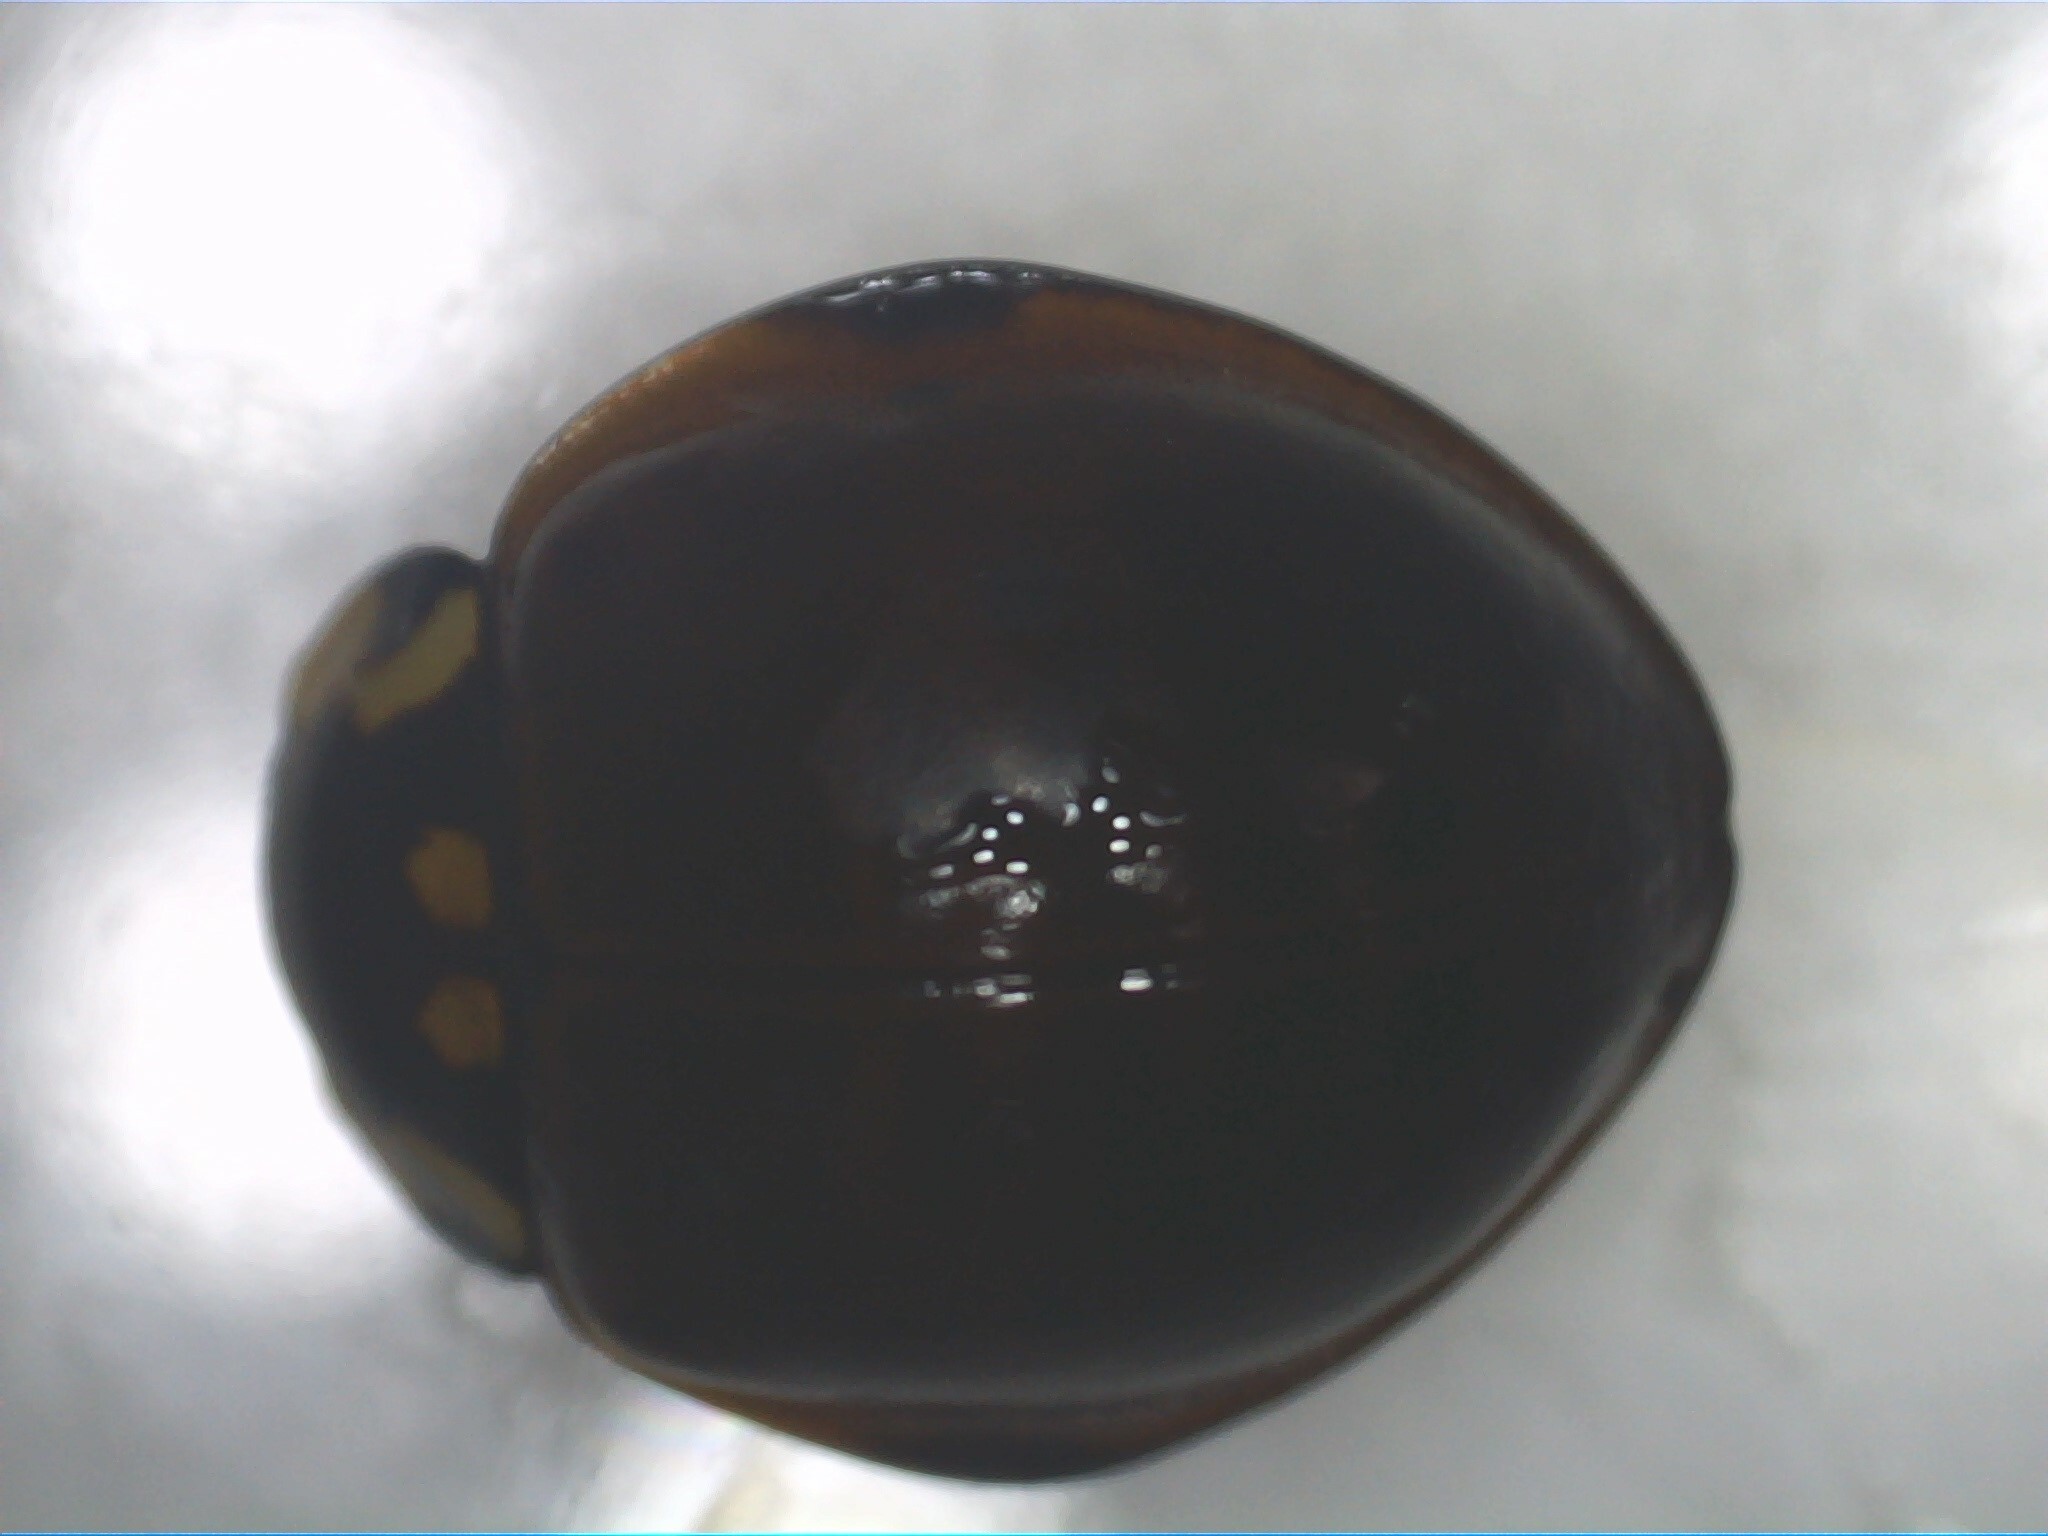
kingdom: Animalia
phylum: Arthropoda
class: Insecta
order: Coleoptera
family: Coccinellidae
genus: Anatis
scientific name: Anatis rathvoni
